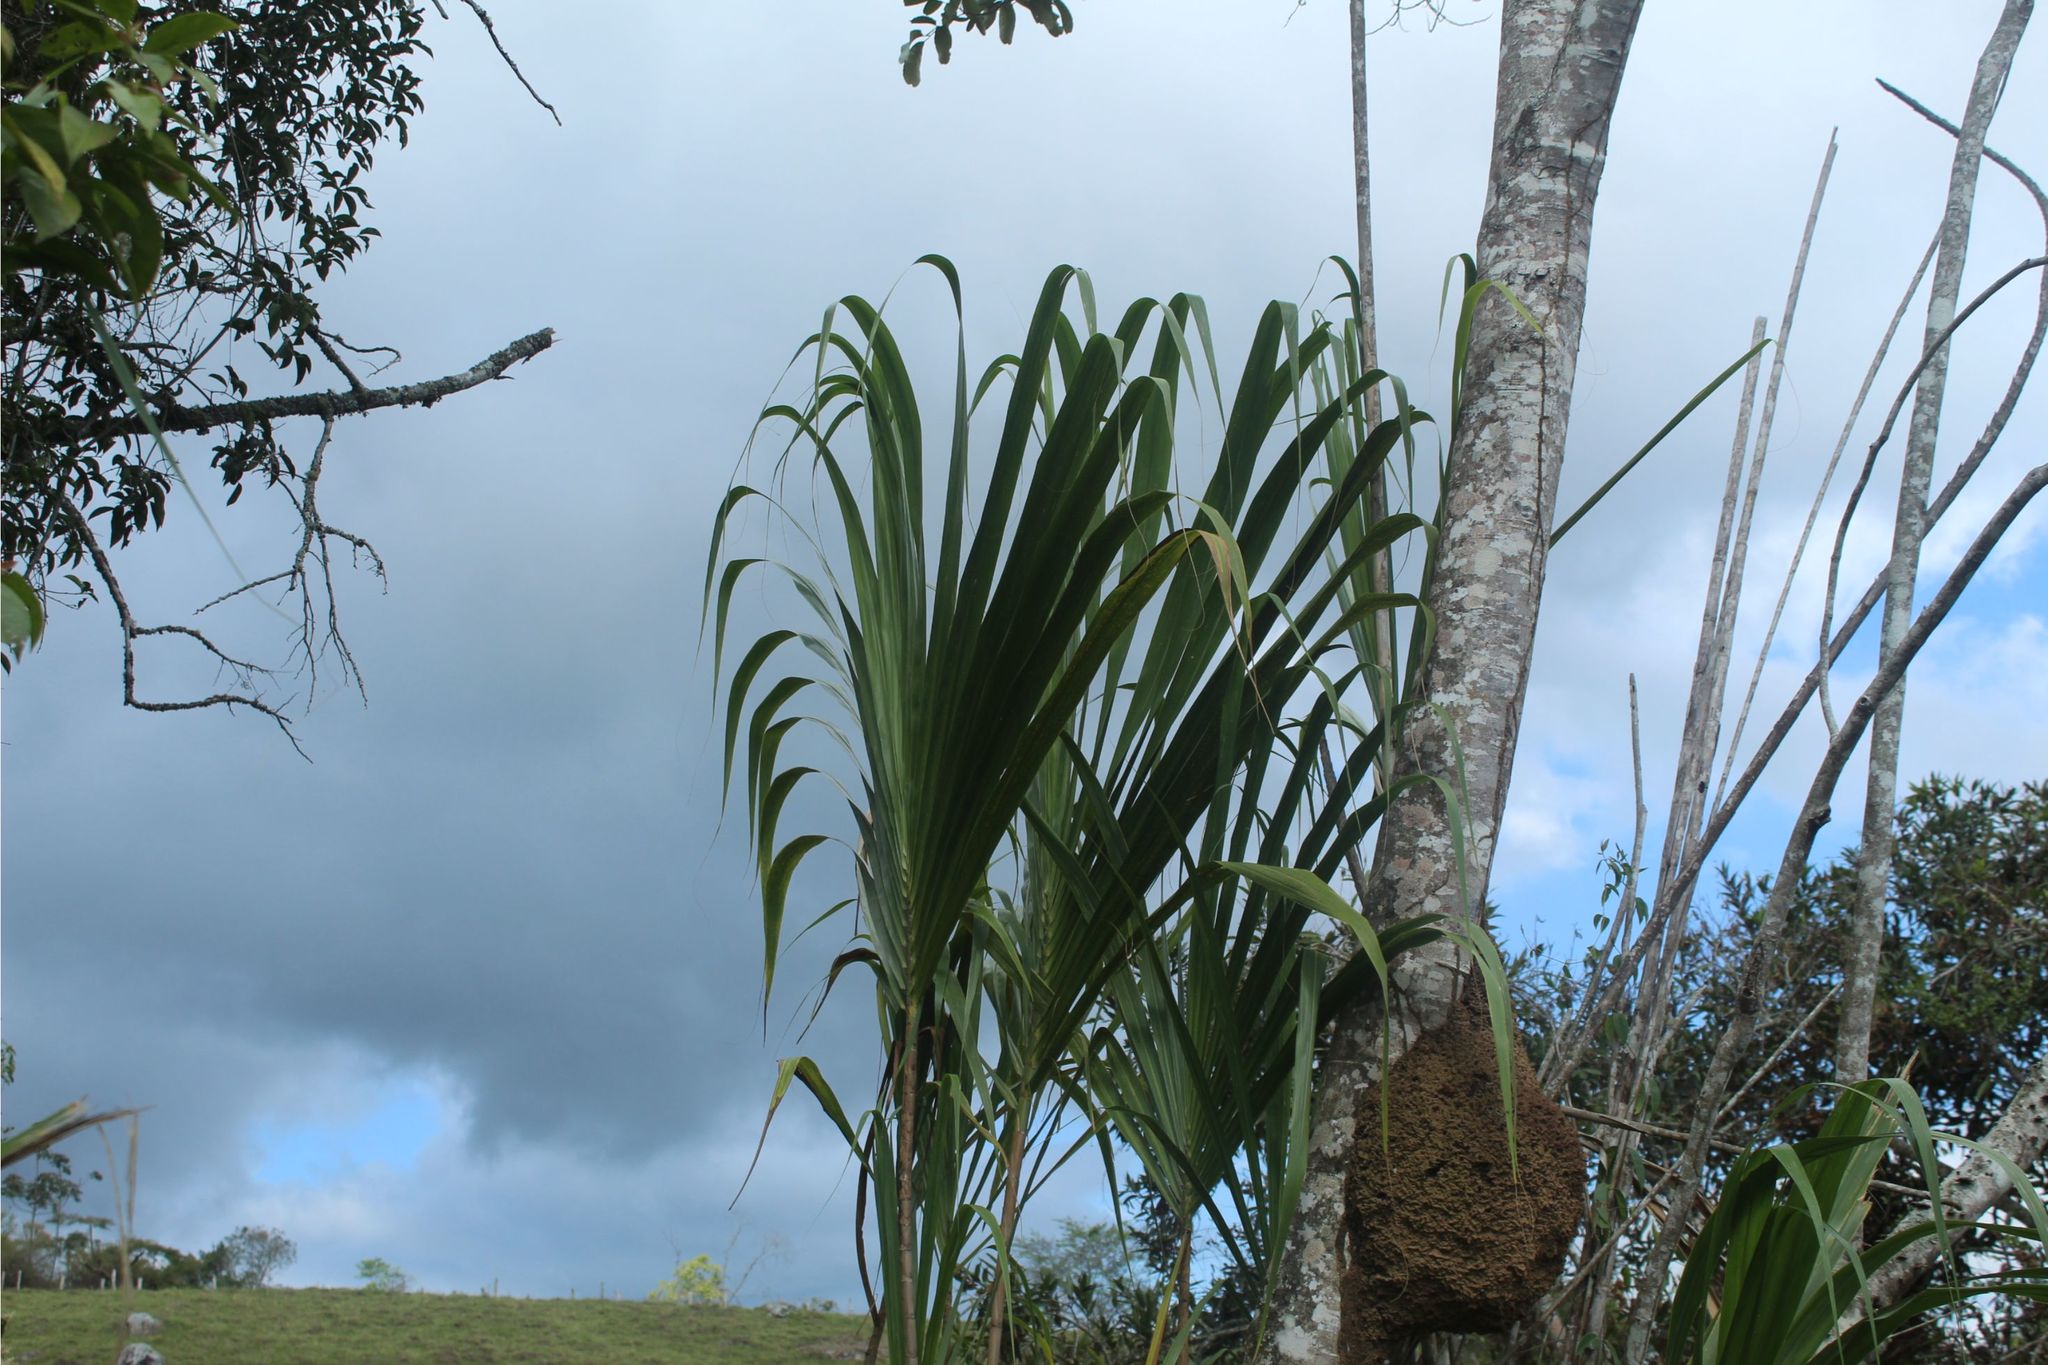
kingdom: Plantae
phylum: Tracheophyta
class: Liliopsida
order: Poales
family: Poaceae
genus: Gynerium
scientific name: Gynerium sagittatum
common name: Wild cane
